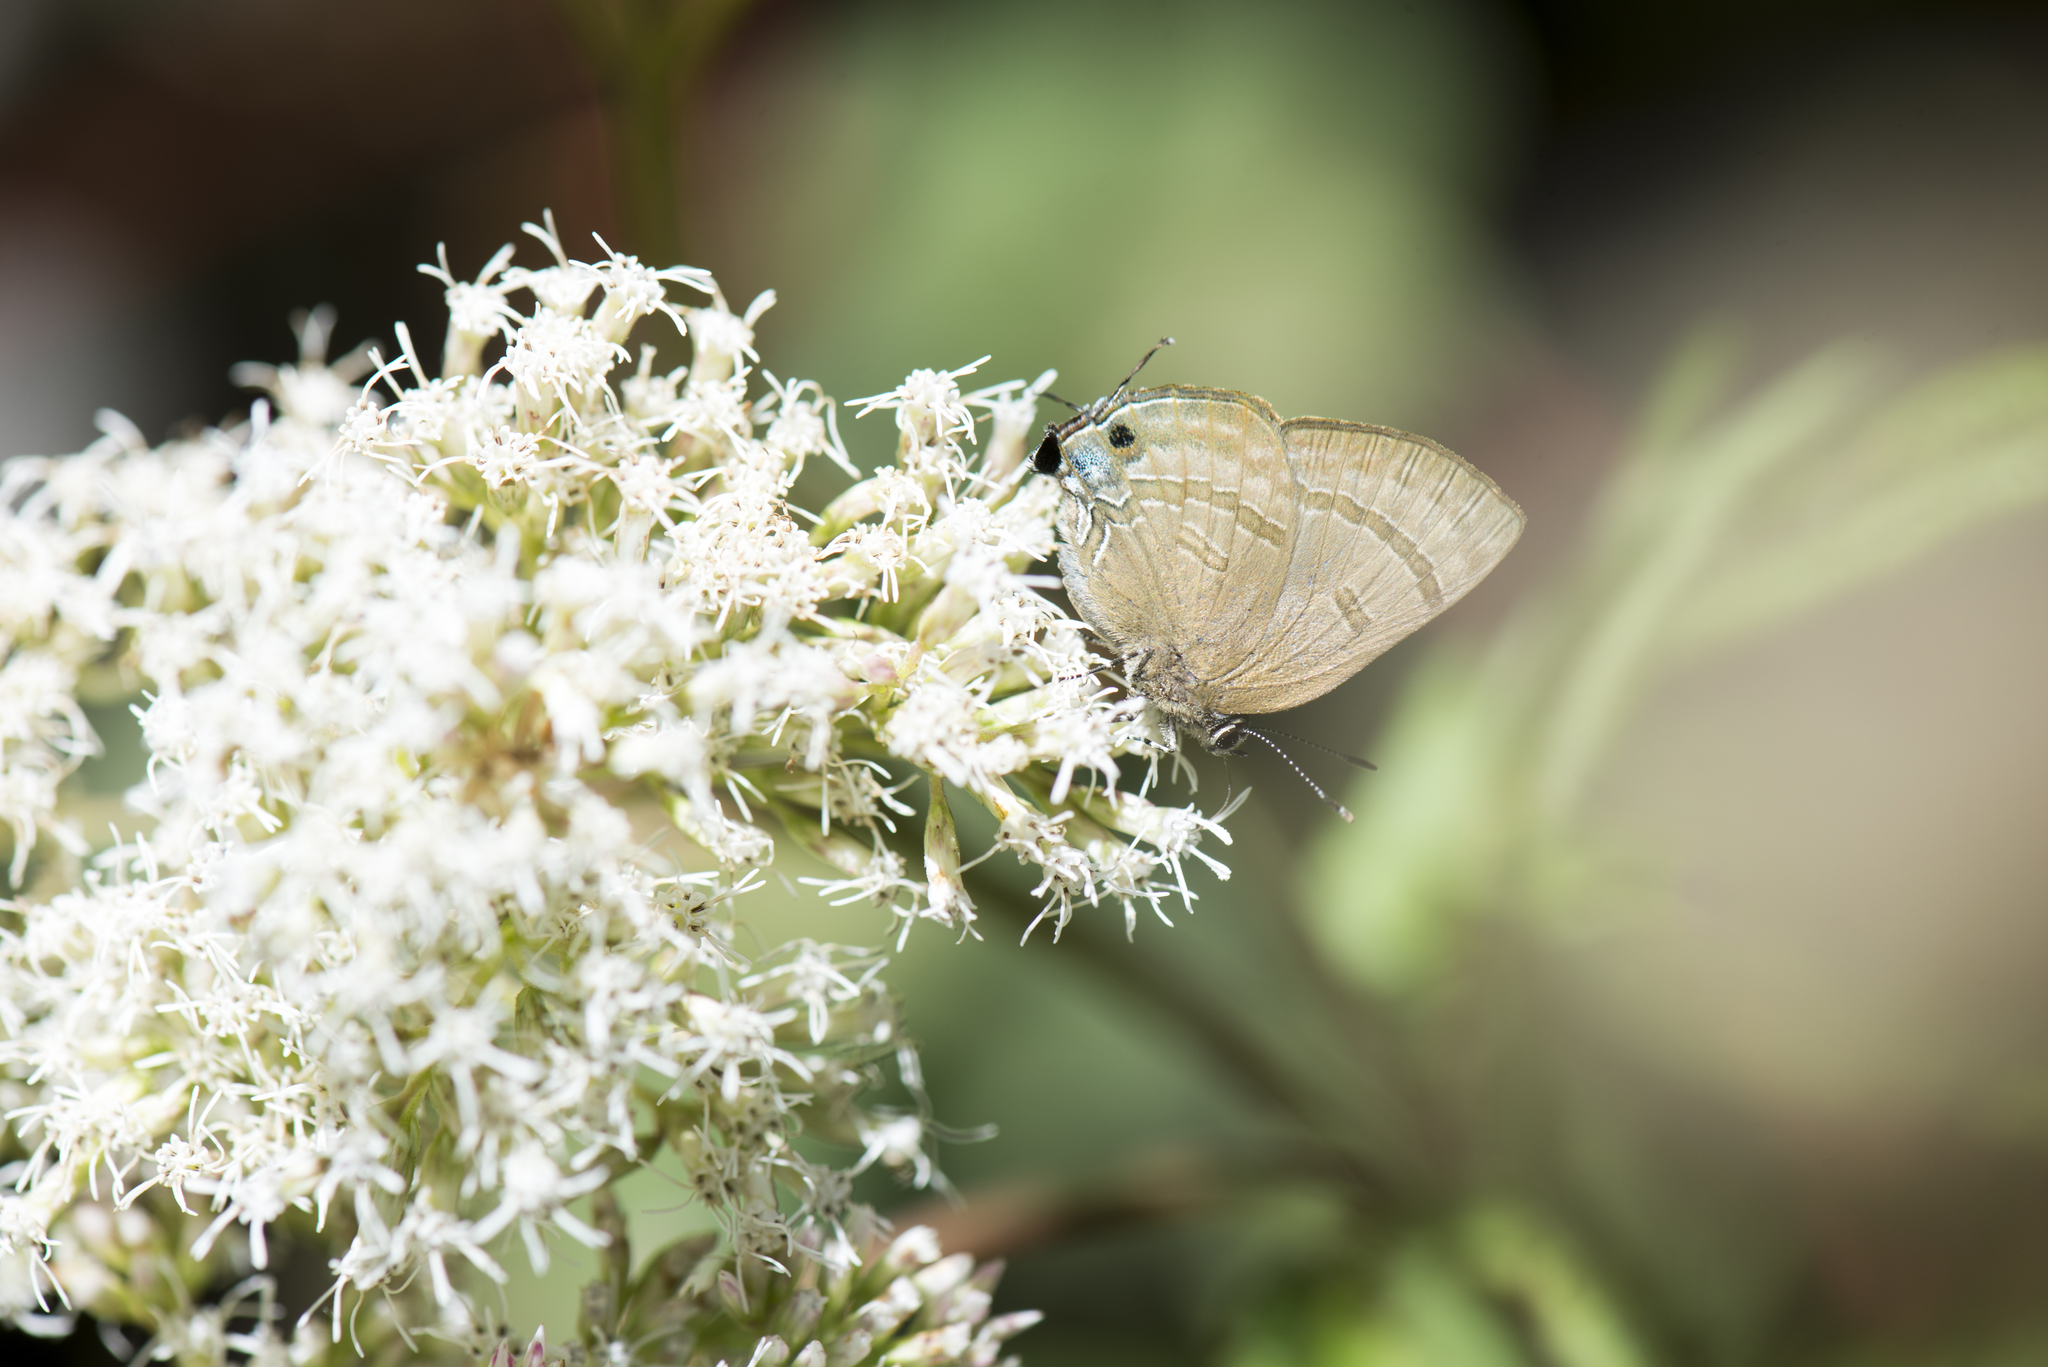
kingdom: Animalia
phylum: Arthropoda
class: Insecta
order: Lepidoptera
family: Lycaenidae
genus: Rapala
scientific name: Rapala varuna
